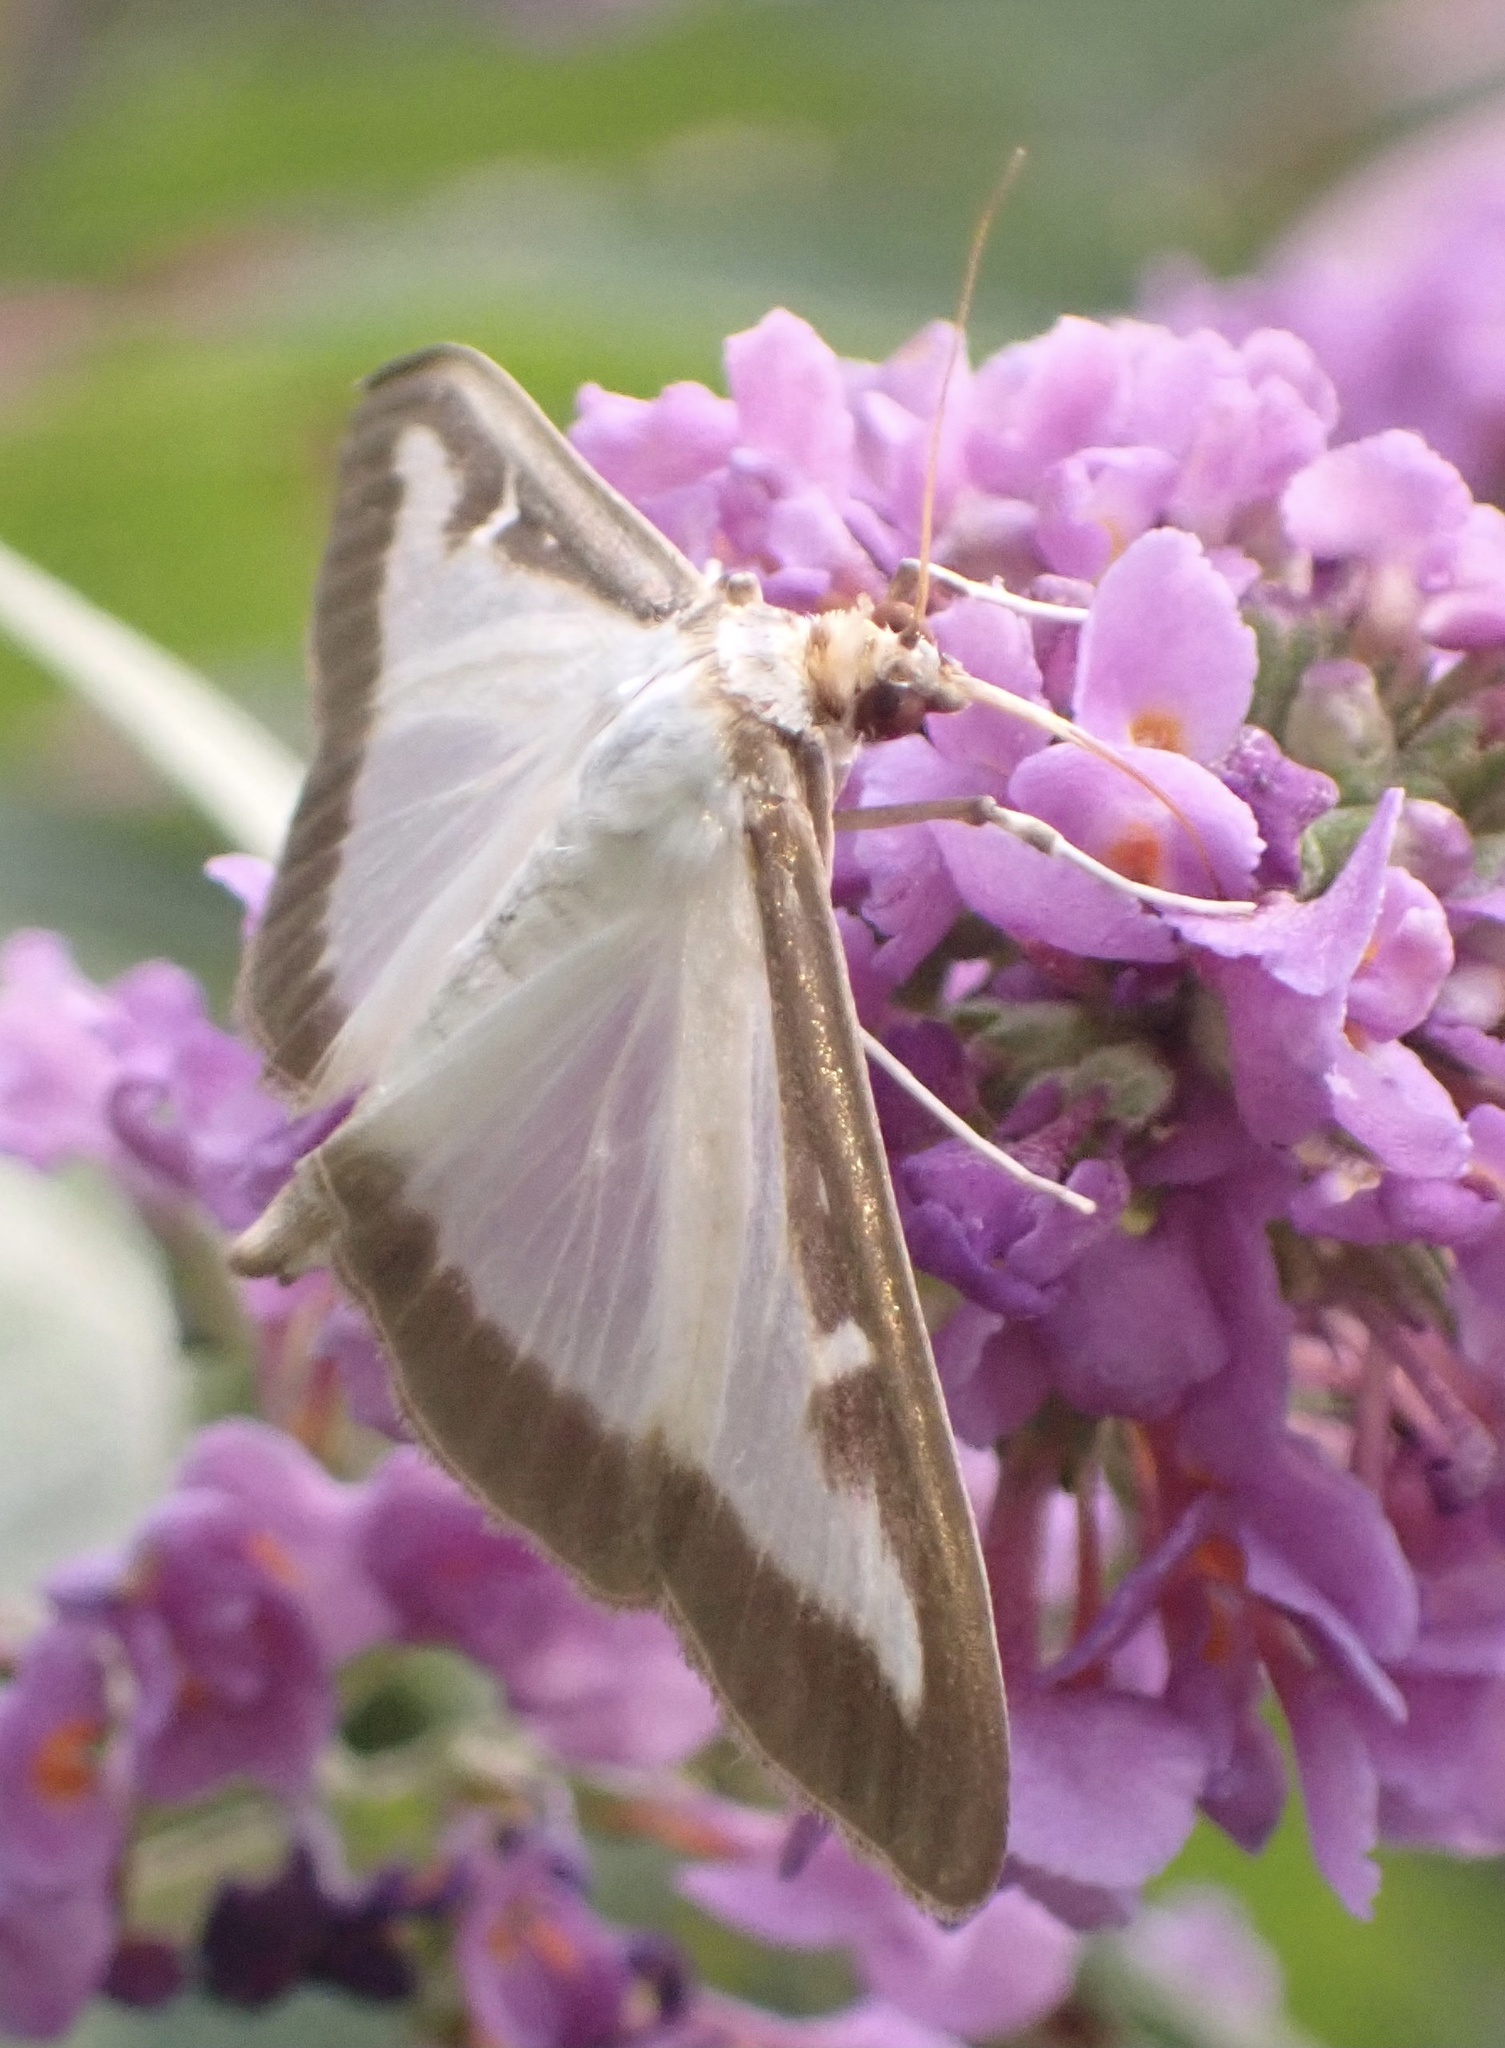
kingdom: Animalia
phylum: Arthropoda
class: Insecta
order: Lepidoptera
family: Crambidae
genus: Cydalima
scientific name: Cydalima perspectalis
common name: Box tree moth
